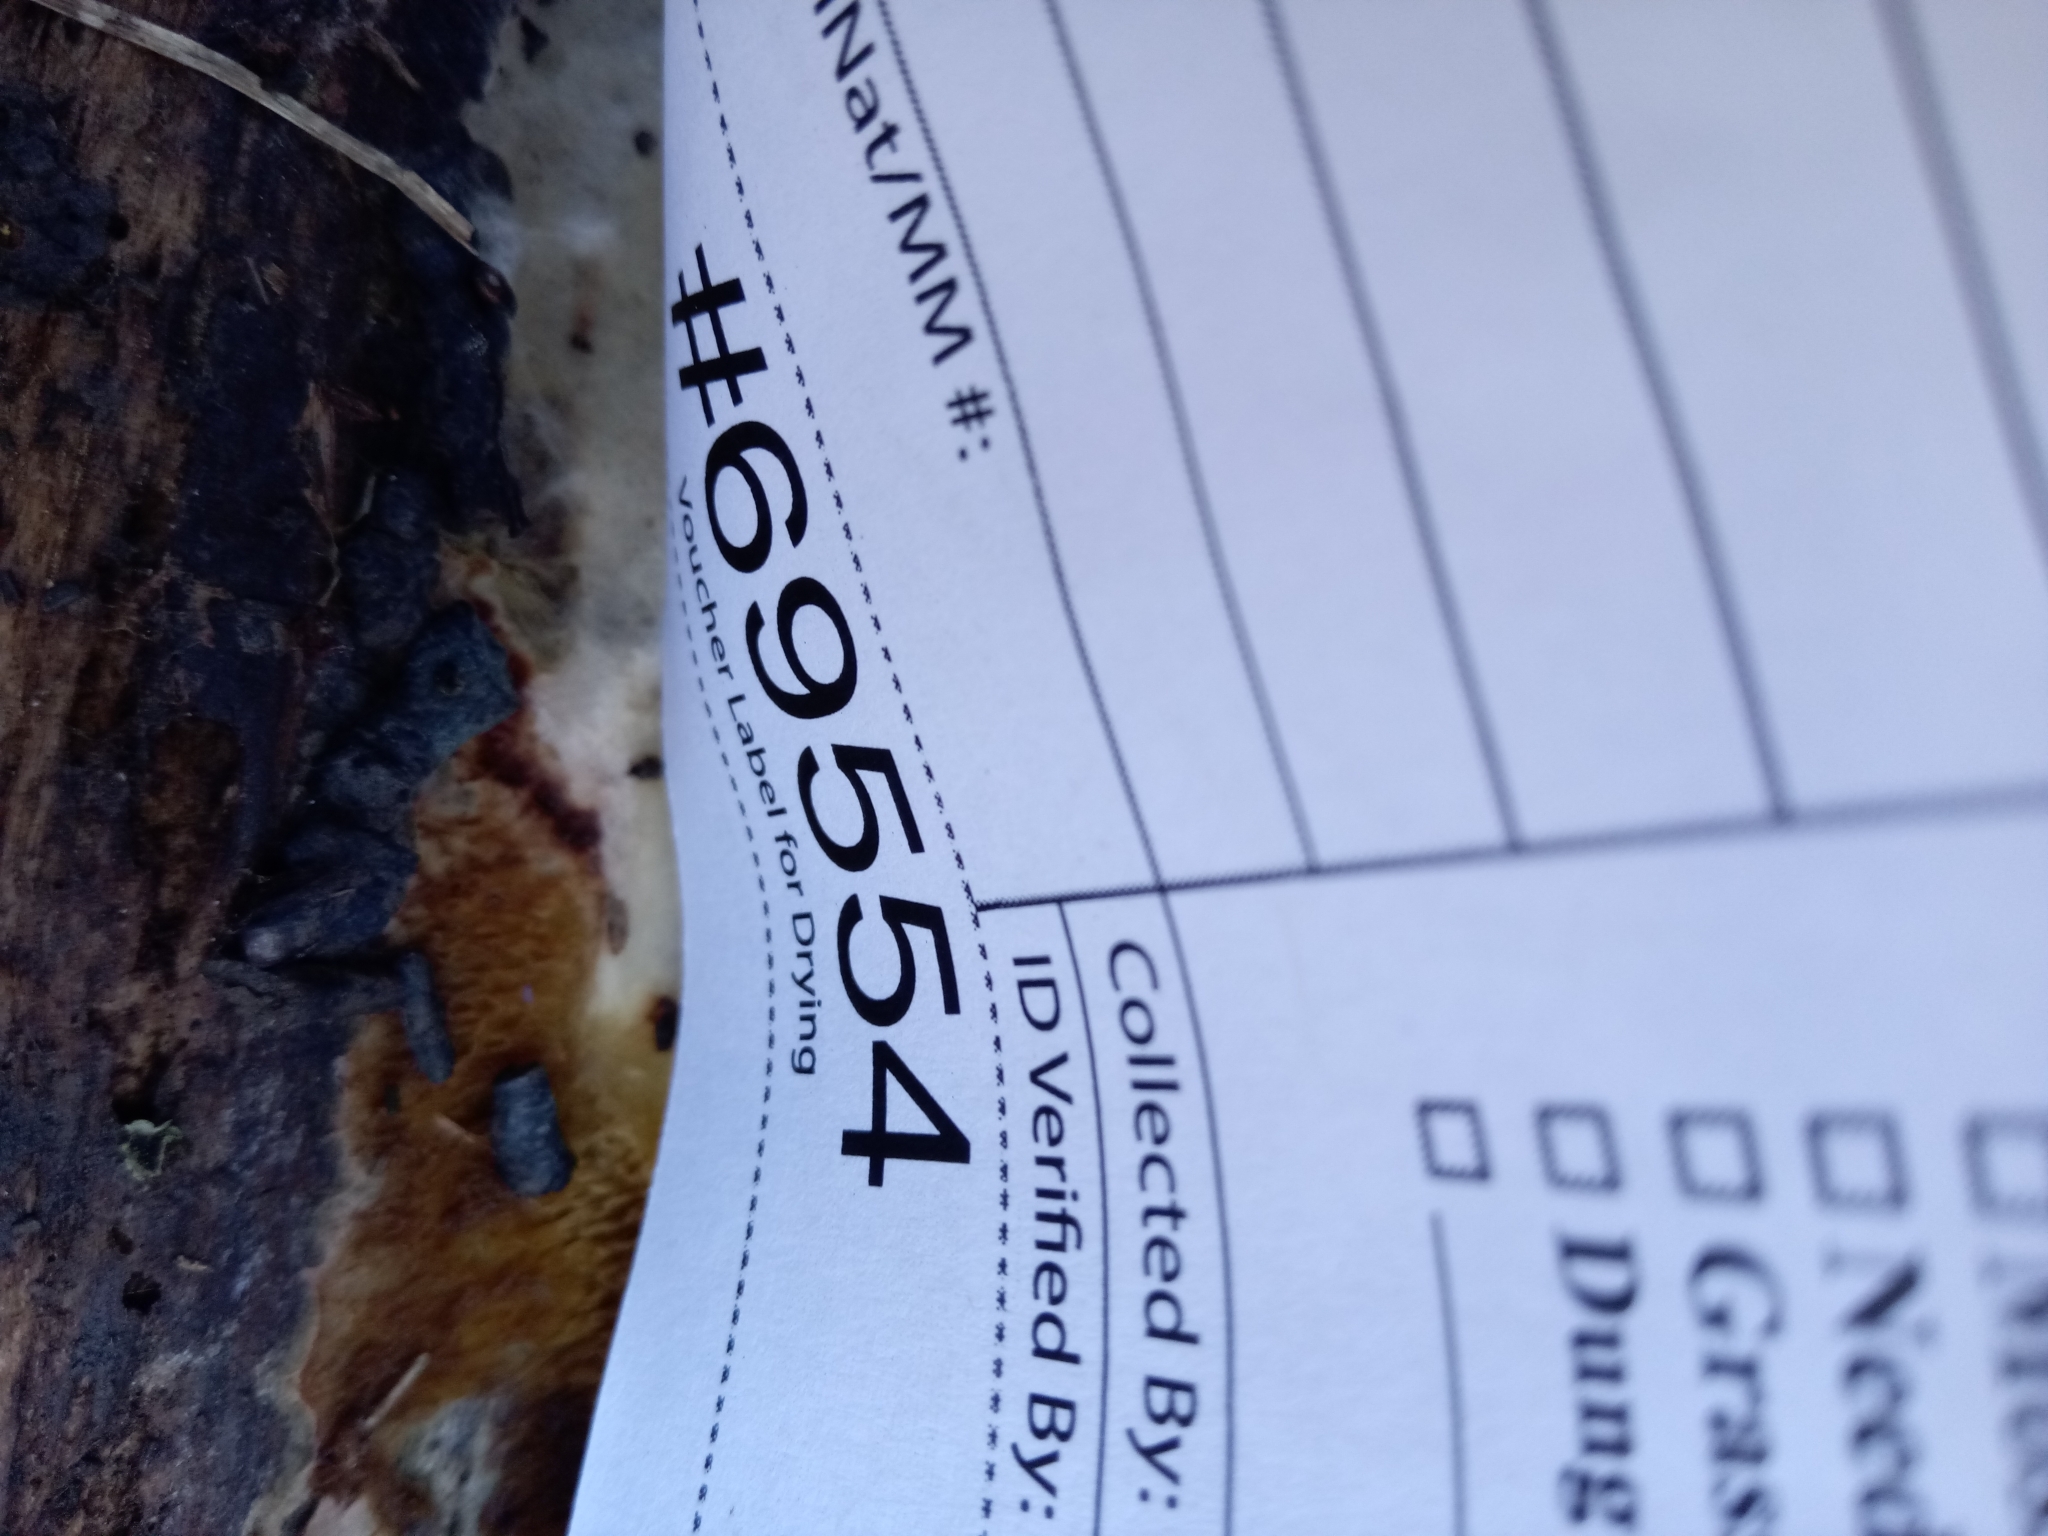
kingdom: Fungi
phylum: Basidiomycota
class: Agaricomycetes
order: Boletales
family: Paxillaceae
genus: Hydnomerulius
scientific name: Hydnomerulius pinastri
